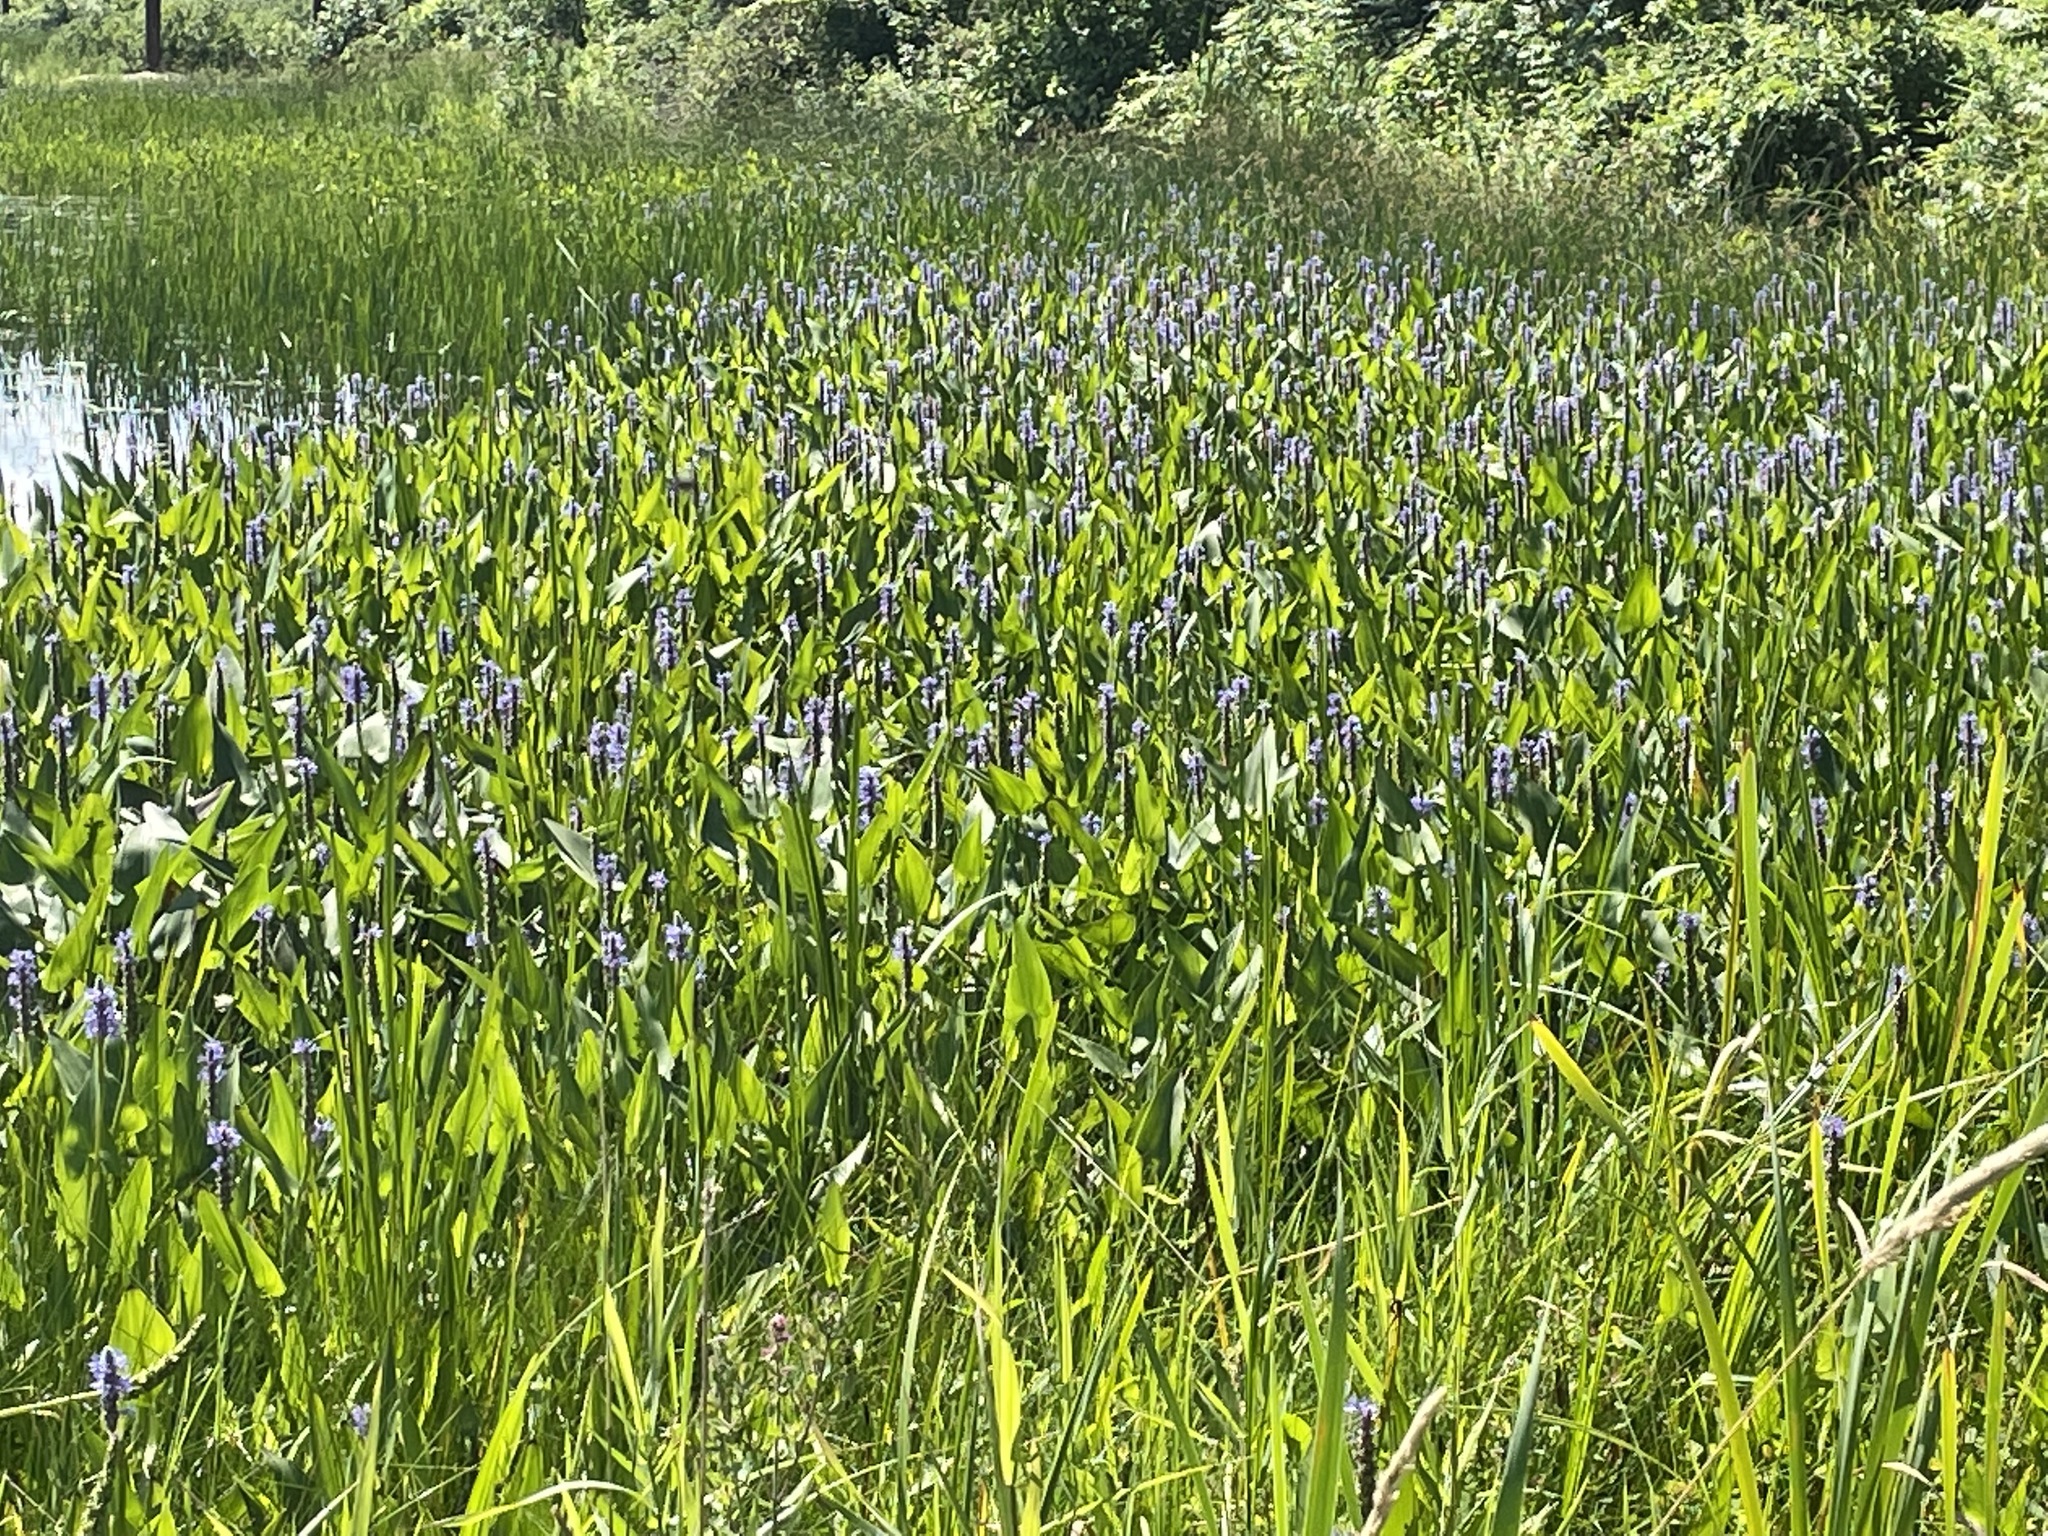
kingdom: Plantae
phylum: Tracheophyta
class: Liliopsida
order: Commelinales
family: Pontederiaceae
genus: Pontederia
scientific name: Pontederia cordata
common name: Pickerelweed
